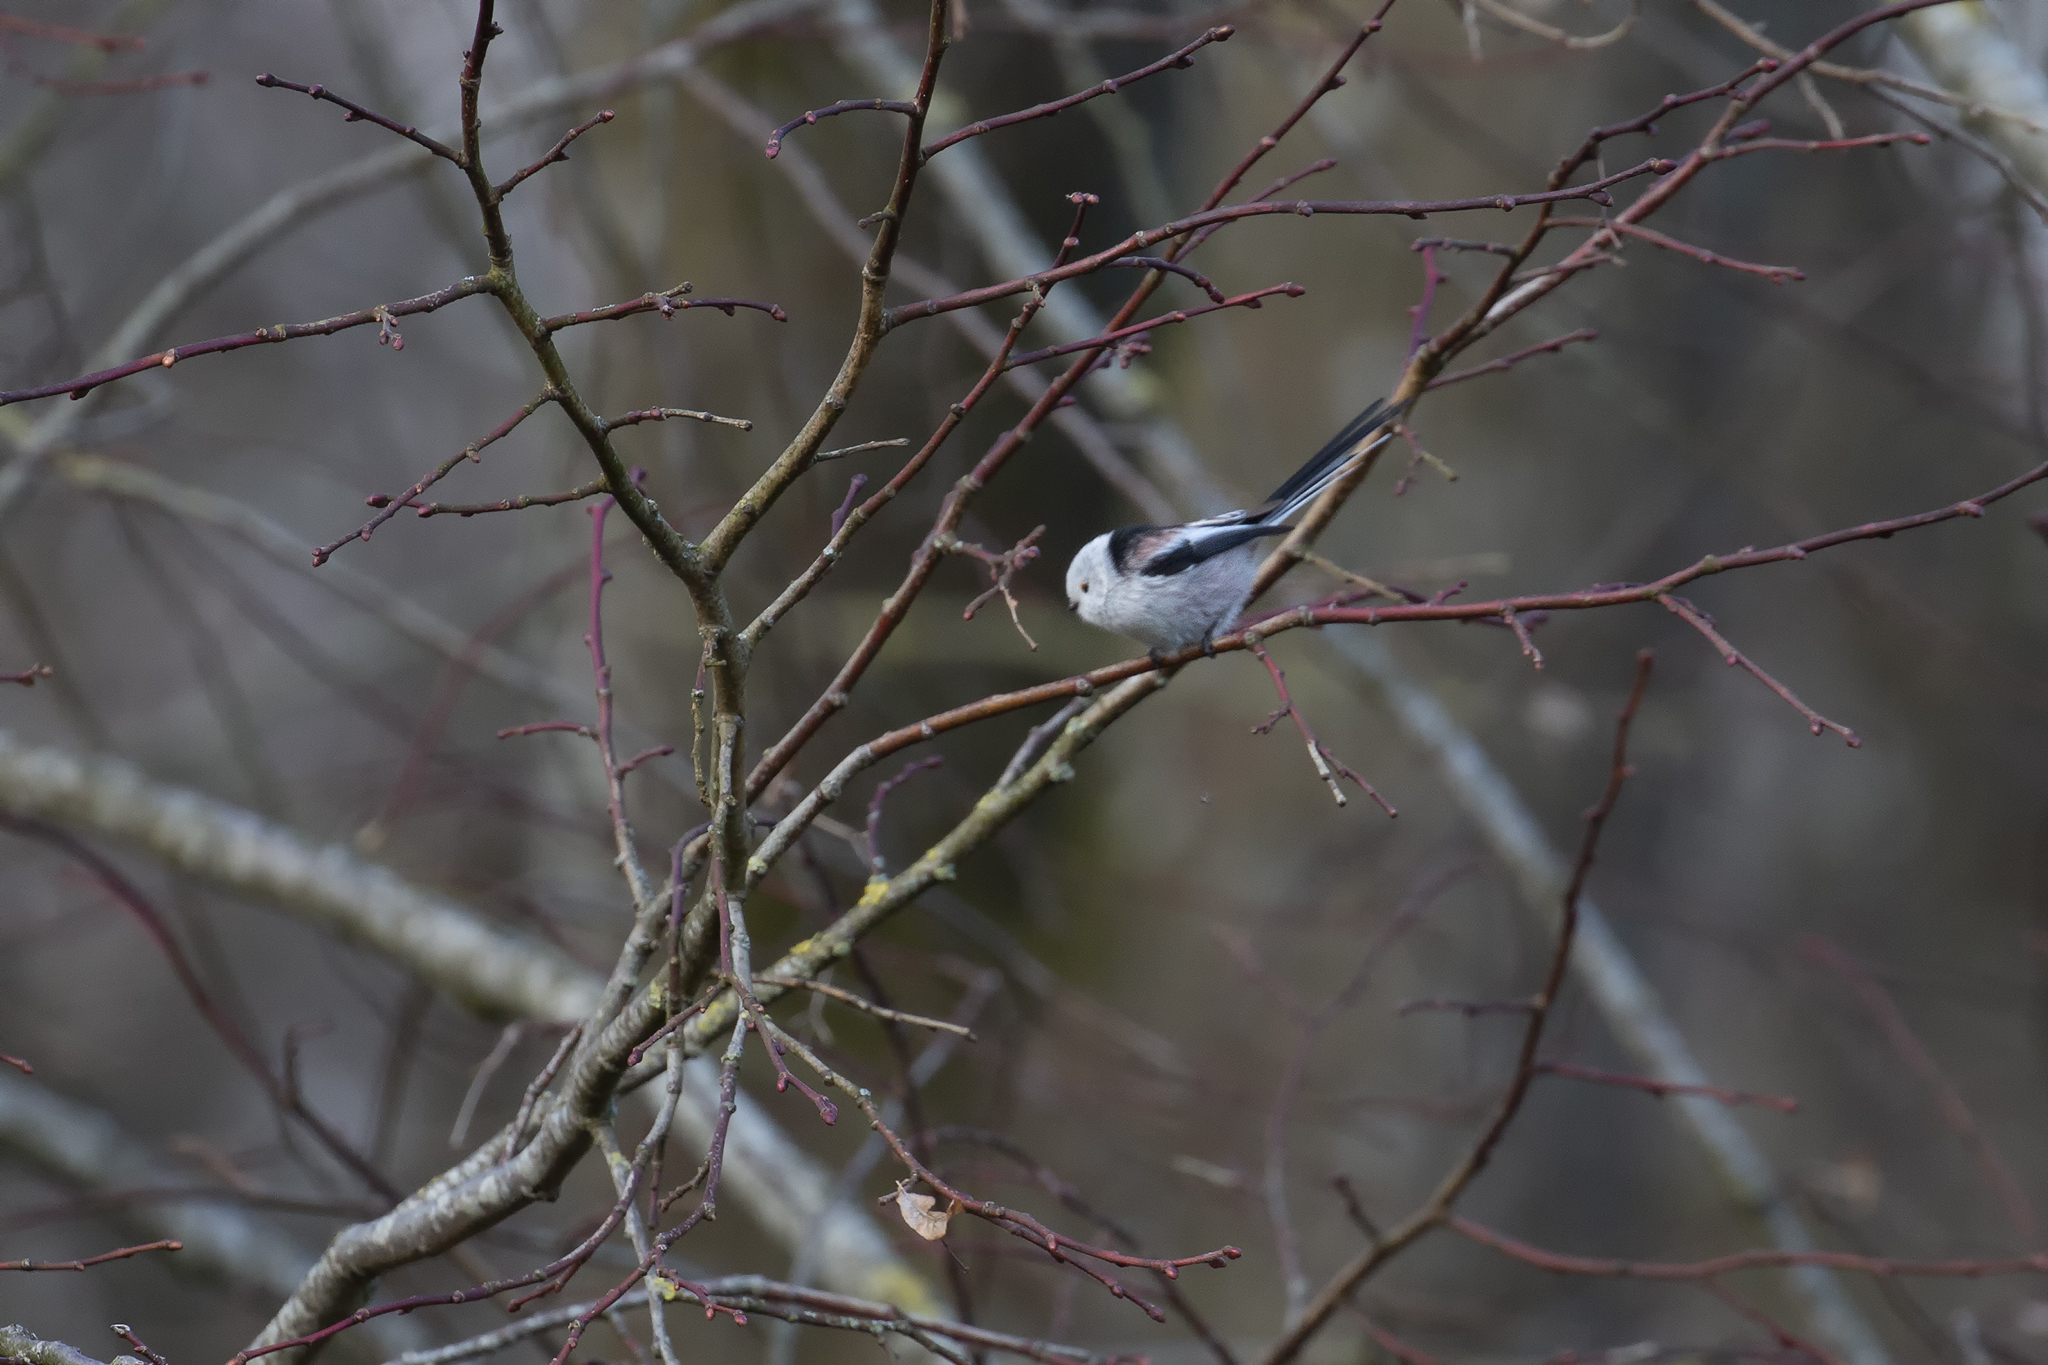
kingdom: Animalia
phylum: Chordata
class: Aves
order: Passeriformes
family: Aegithalidae
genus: Aegithalos
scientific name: Aegithalos caudatus
